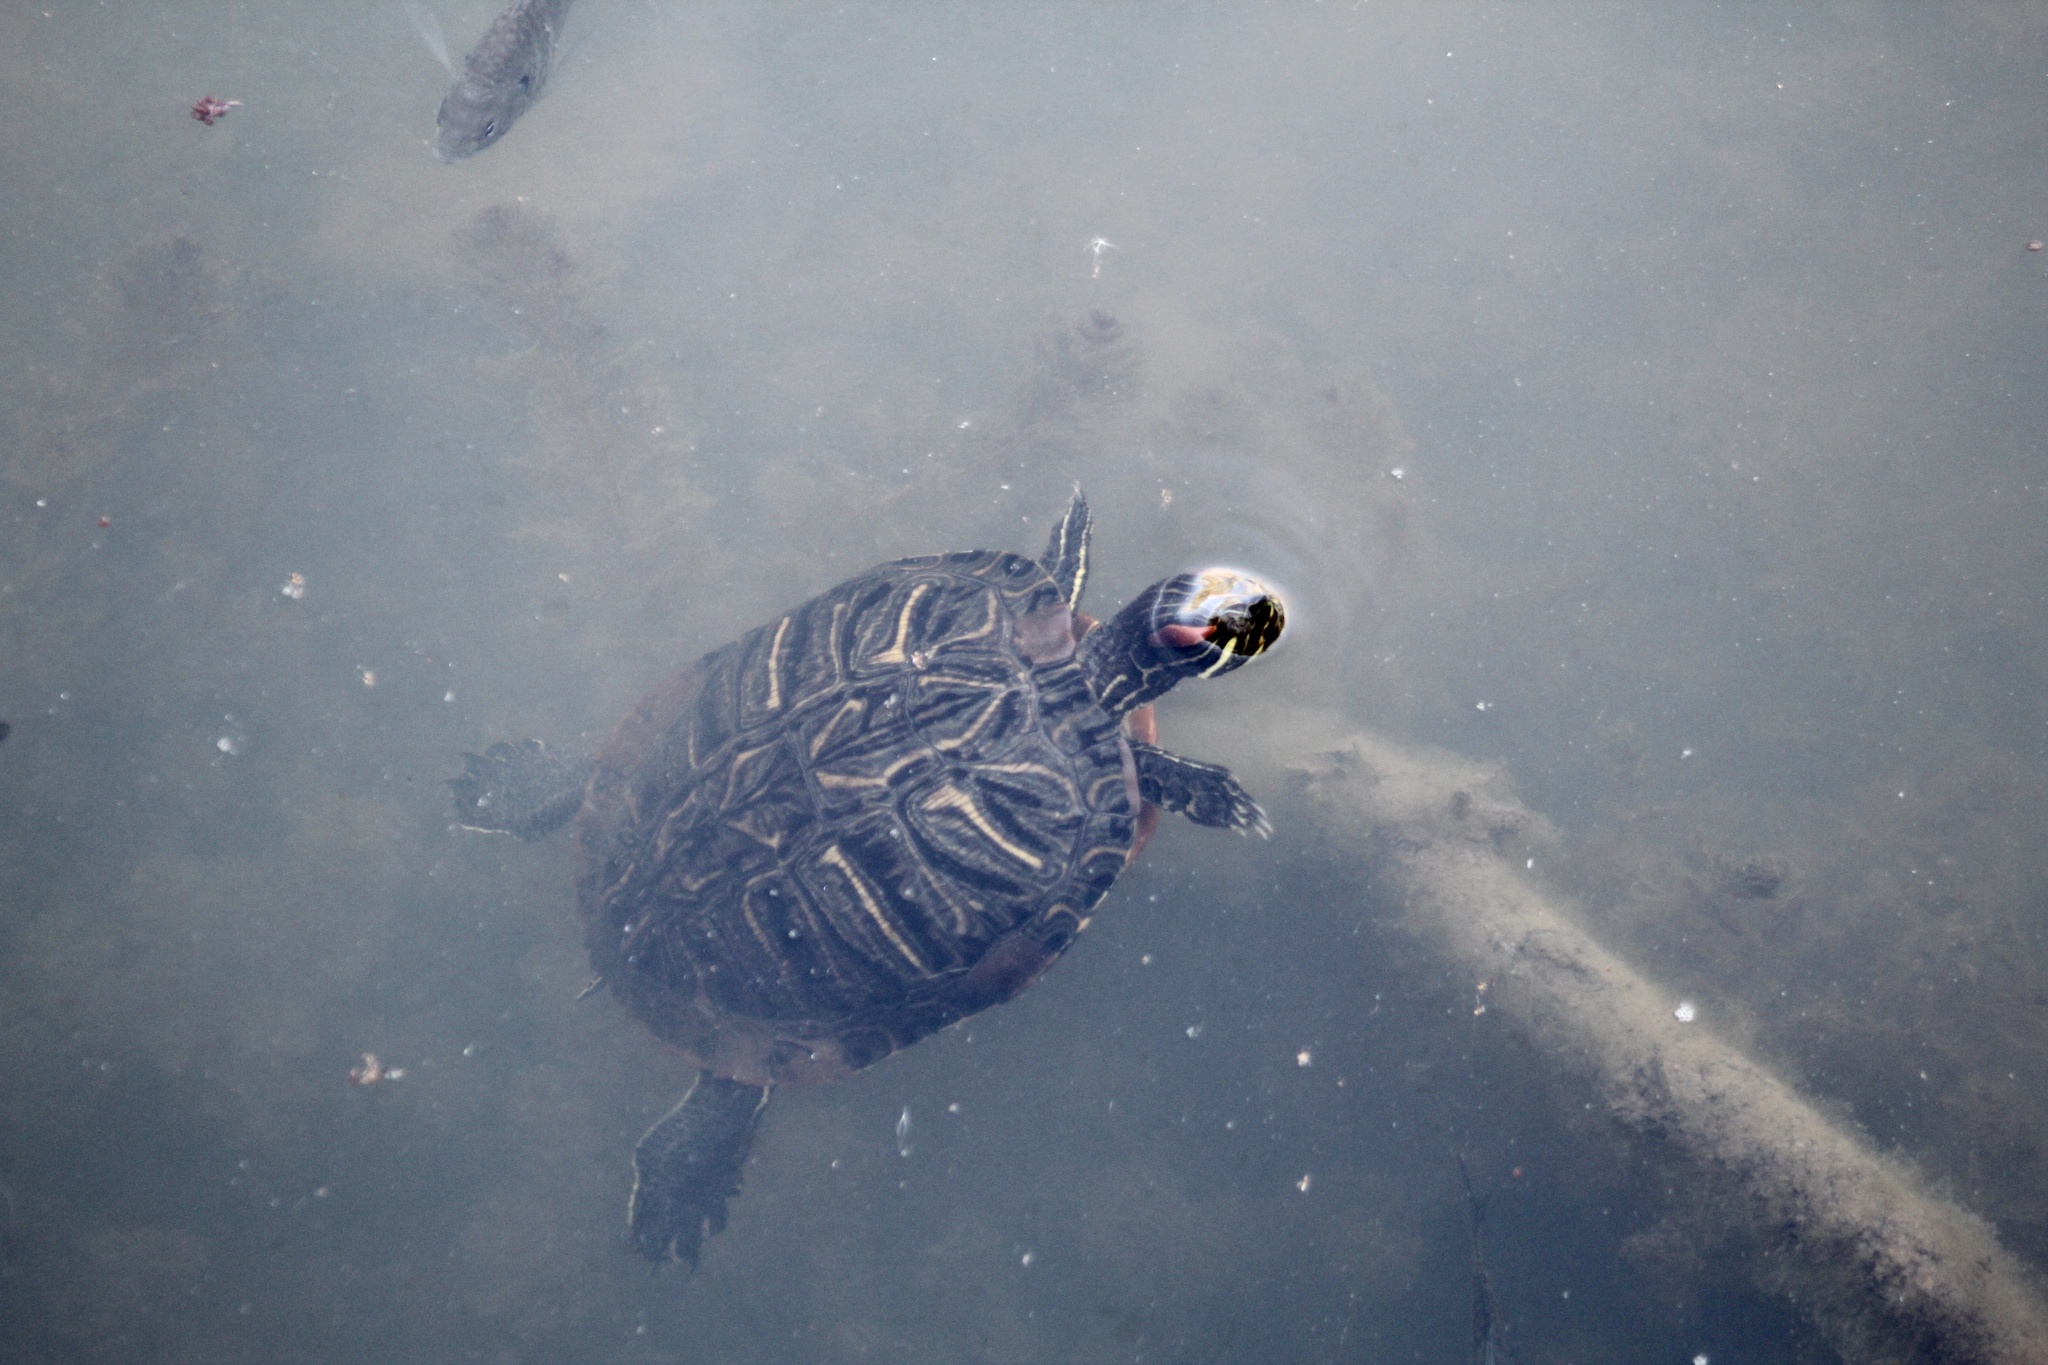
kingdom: Animalia
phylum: Chordata
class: Testudines
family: Emydidae
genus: Trachemys
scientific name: Trachemys scripta
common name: Slider
